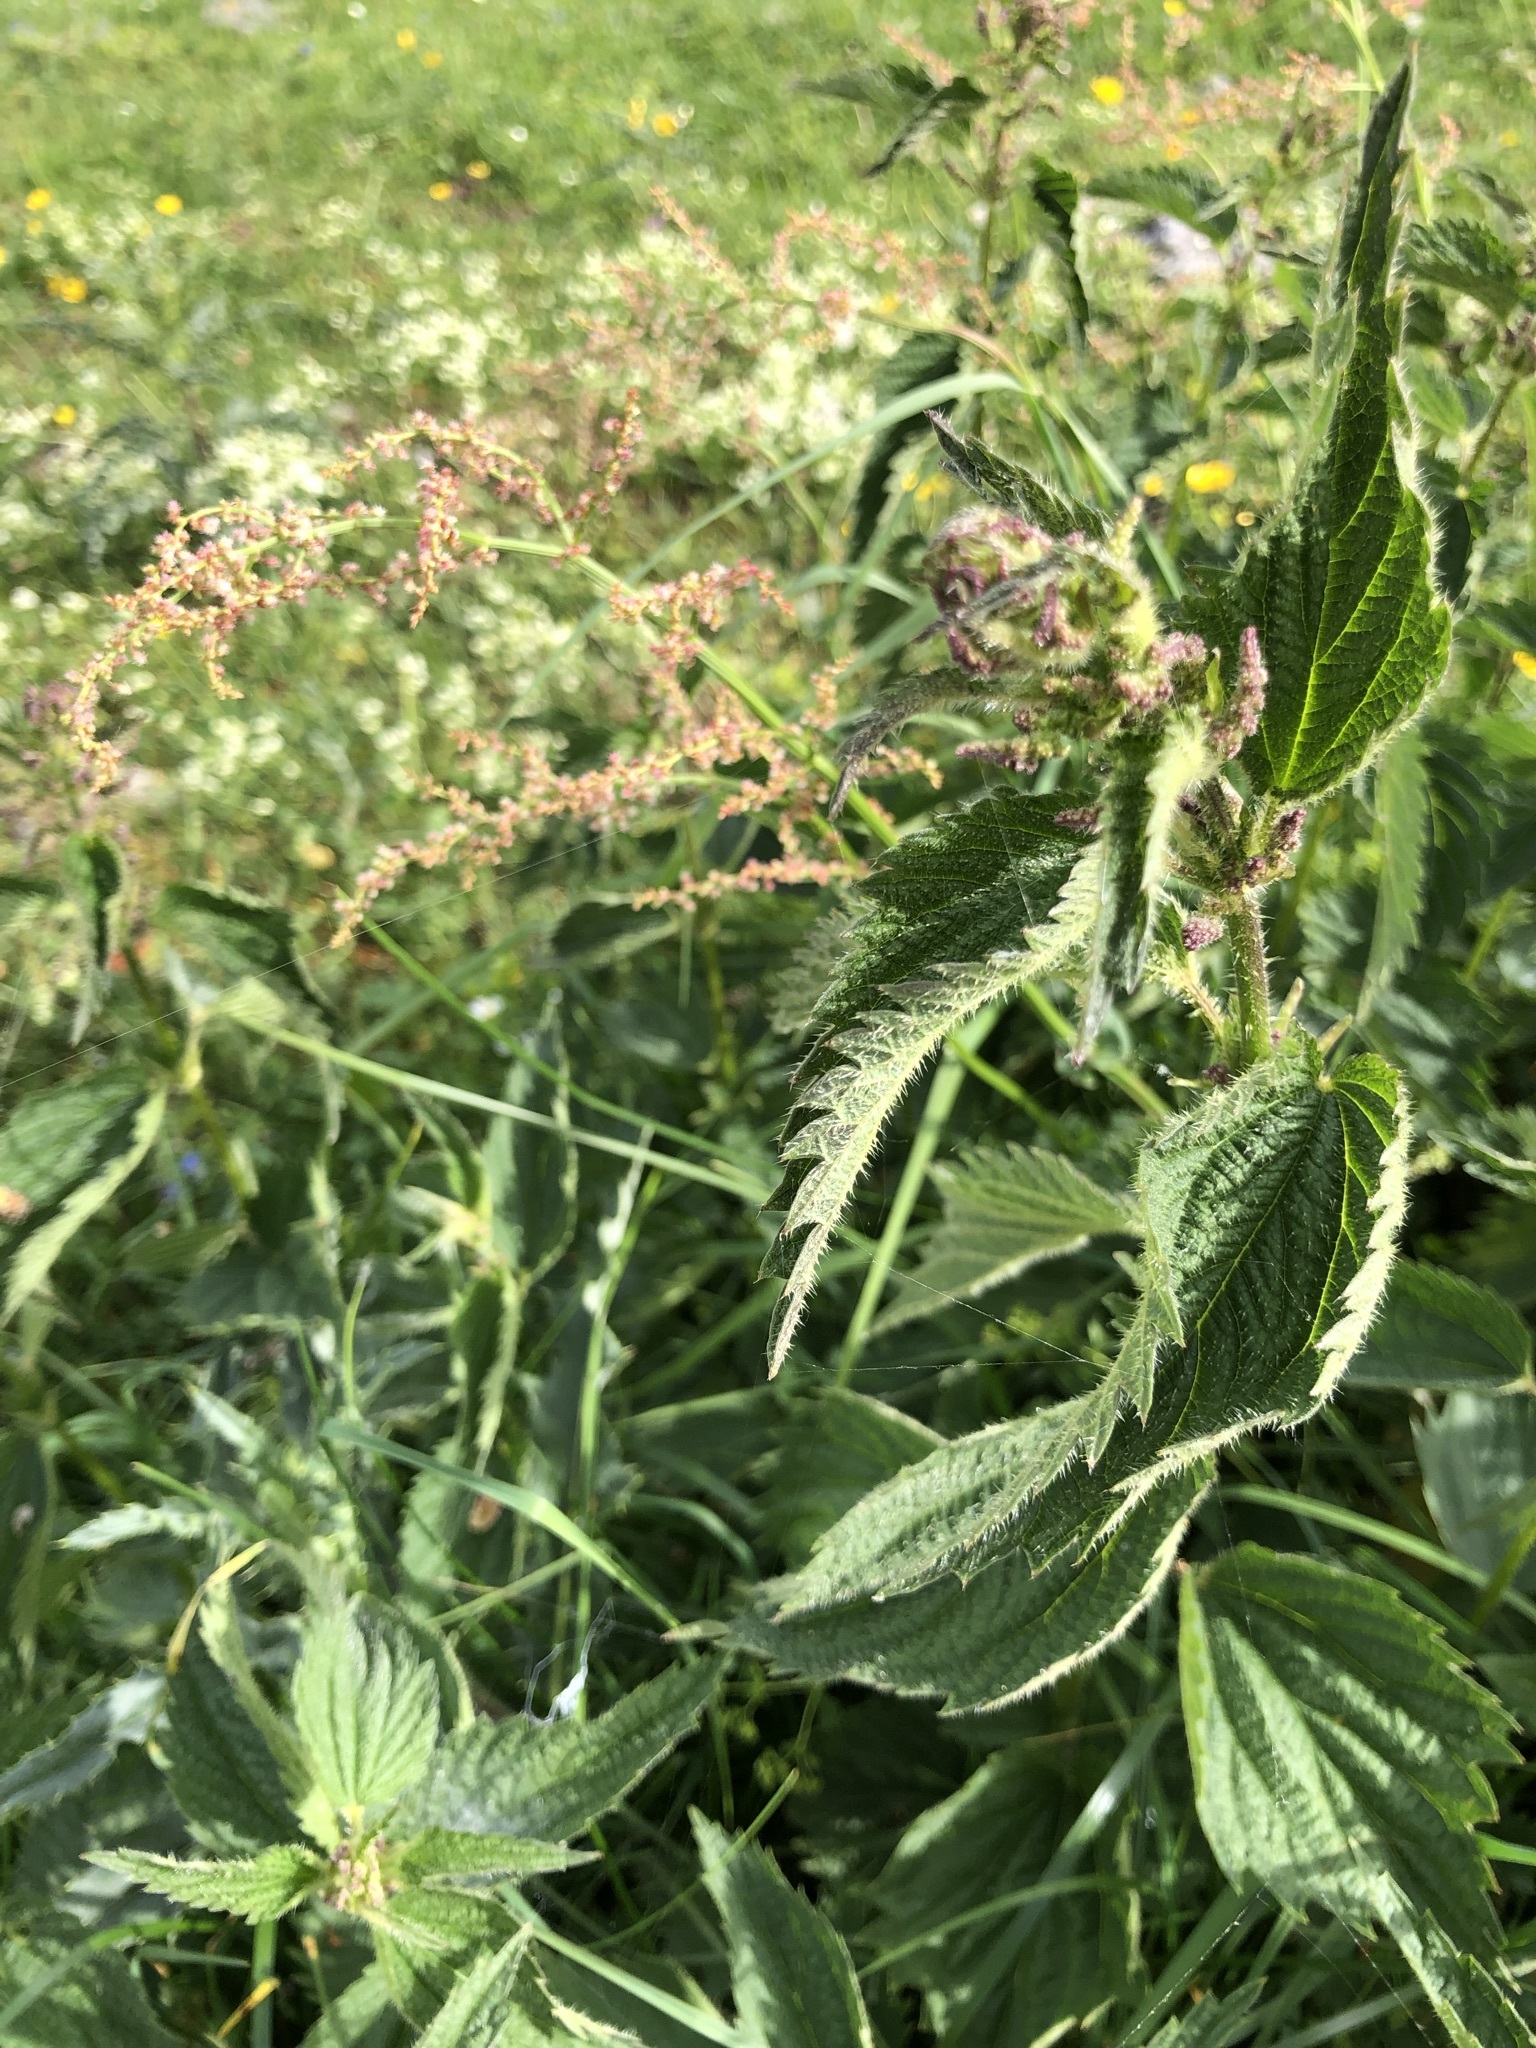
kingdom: Plantae
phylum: Tracheophyta
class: Magnoliopsida
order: Rosales
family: Urticaceae
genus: Urtica
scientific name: Urtica dioica
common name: Common nettle
